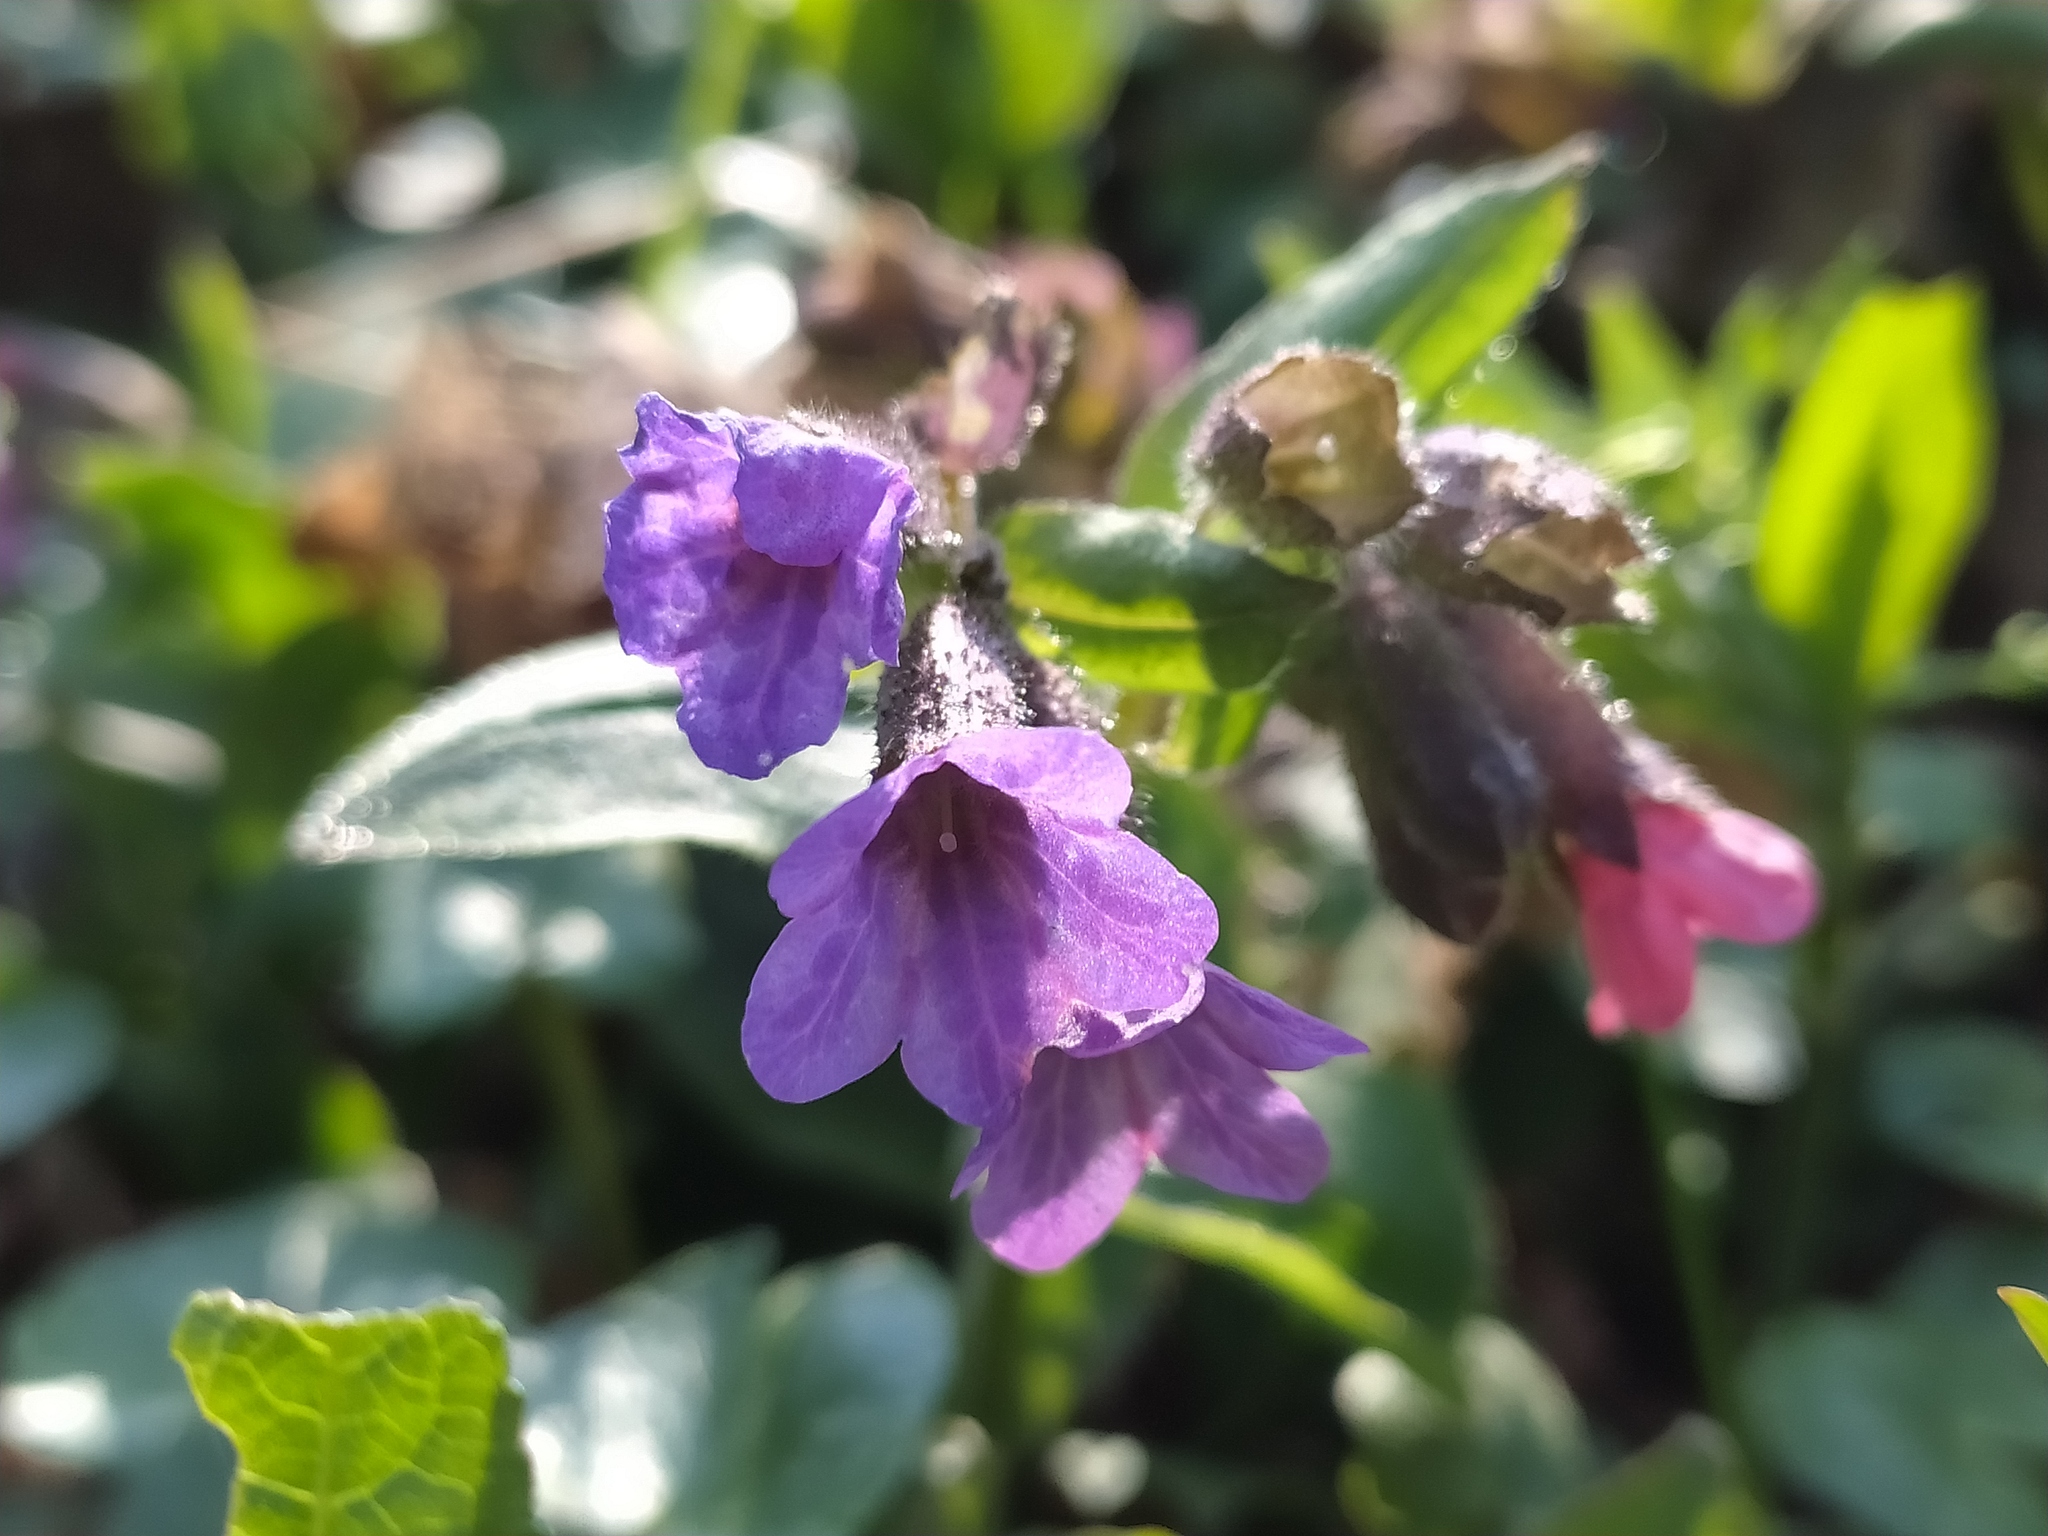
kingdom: Plantae
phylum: Tracheophyta
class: Magnoliopsida
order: Boraginales
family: Boraginaceae
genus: Pulmonaria
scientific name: Pulmonaria obscura
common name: Suffolk lungwort
